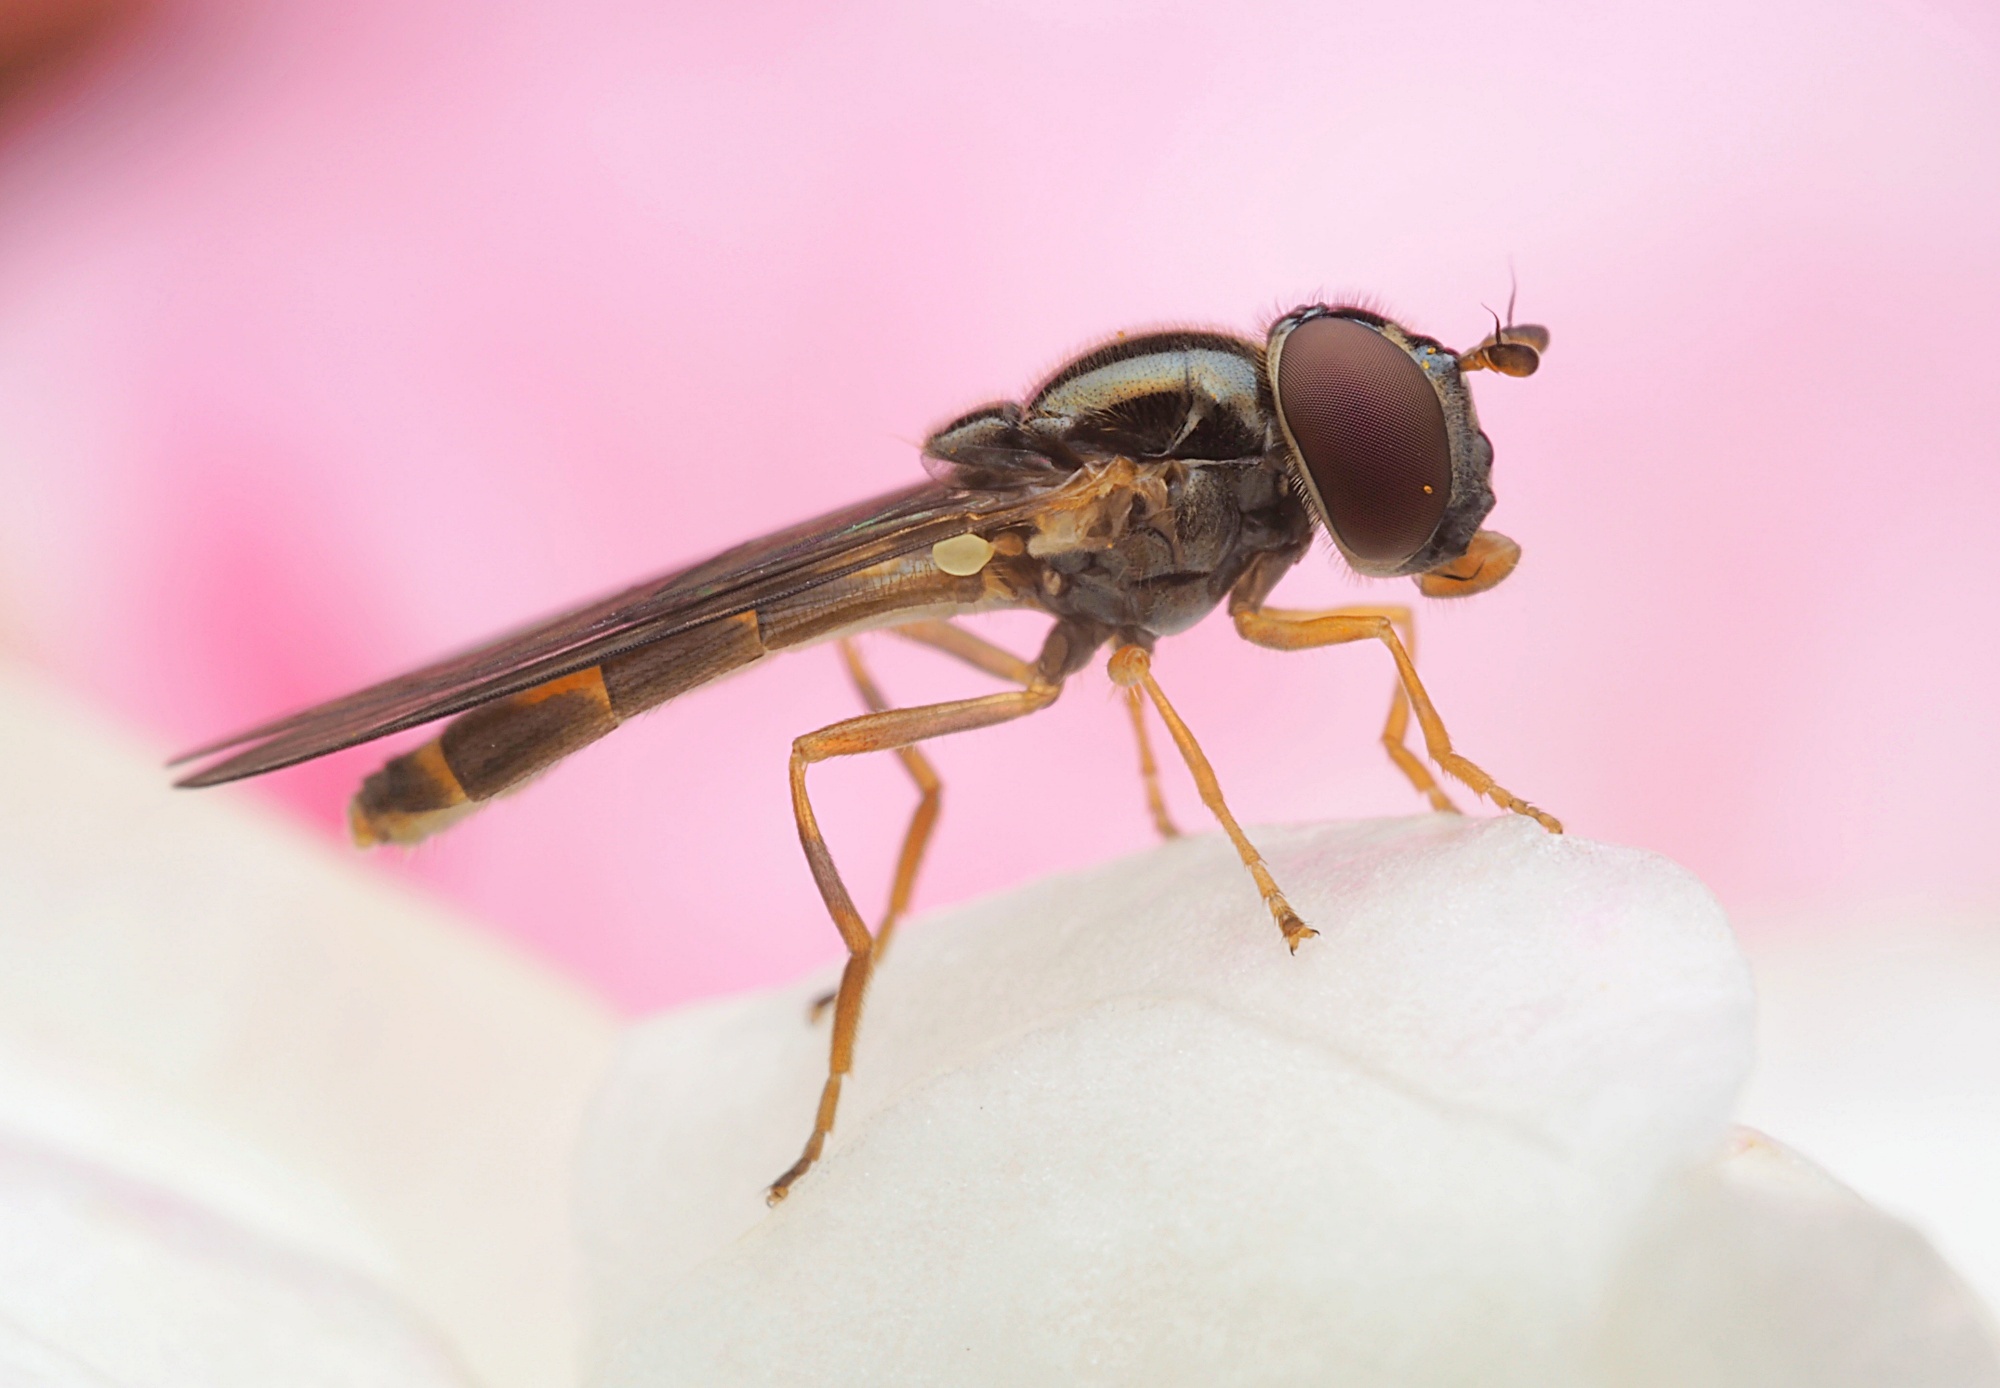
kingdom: Animalia
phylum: Arthropoda
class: Insecta
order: Diptera
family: Syrphidae
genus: Melanostoma
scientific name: Melanostoma fasciatum
